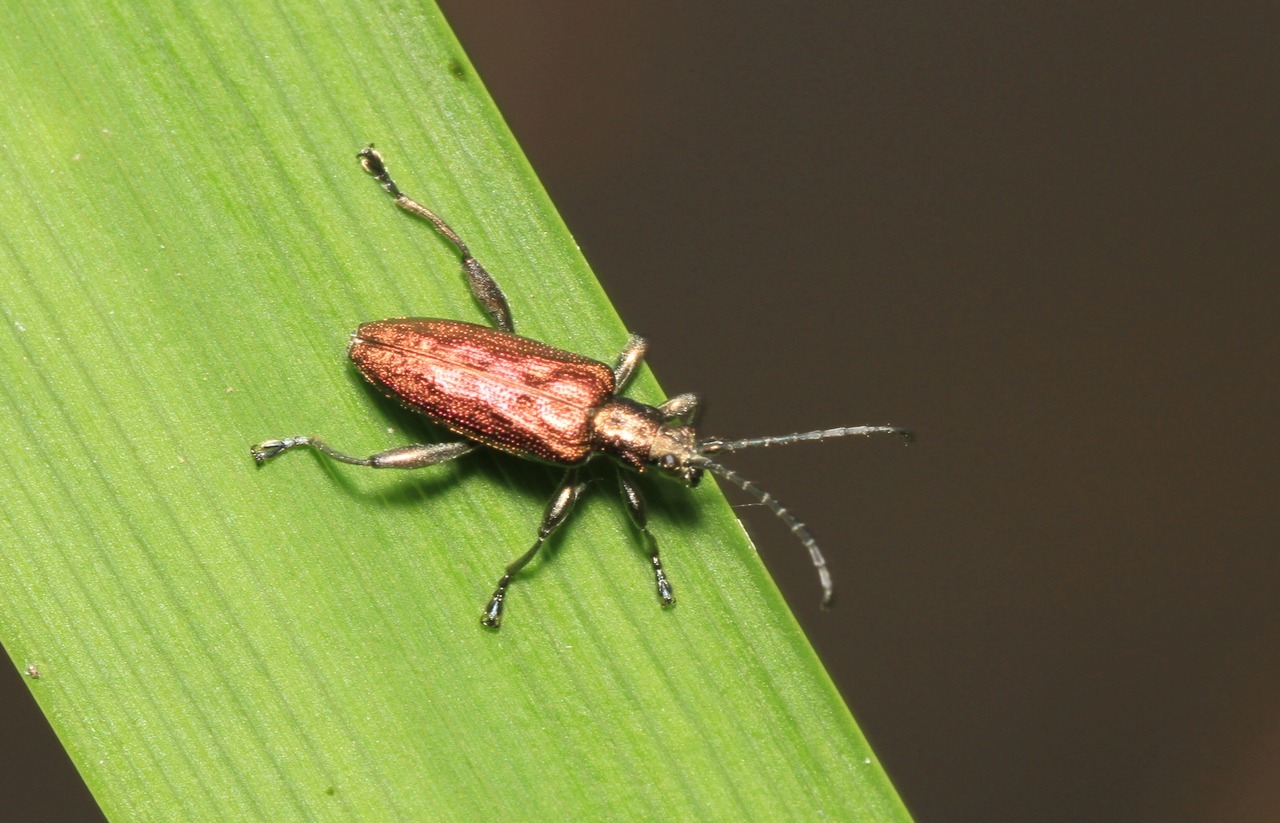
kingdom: Animalia
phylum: Arthropoda
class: Insecta
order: Coleoptera
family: Chrysomelidae
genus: Donacia
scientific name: Donacia marginata
